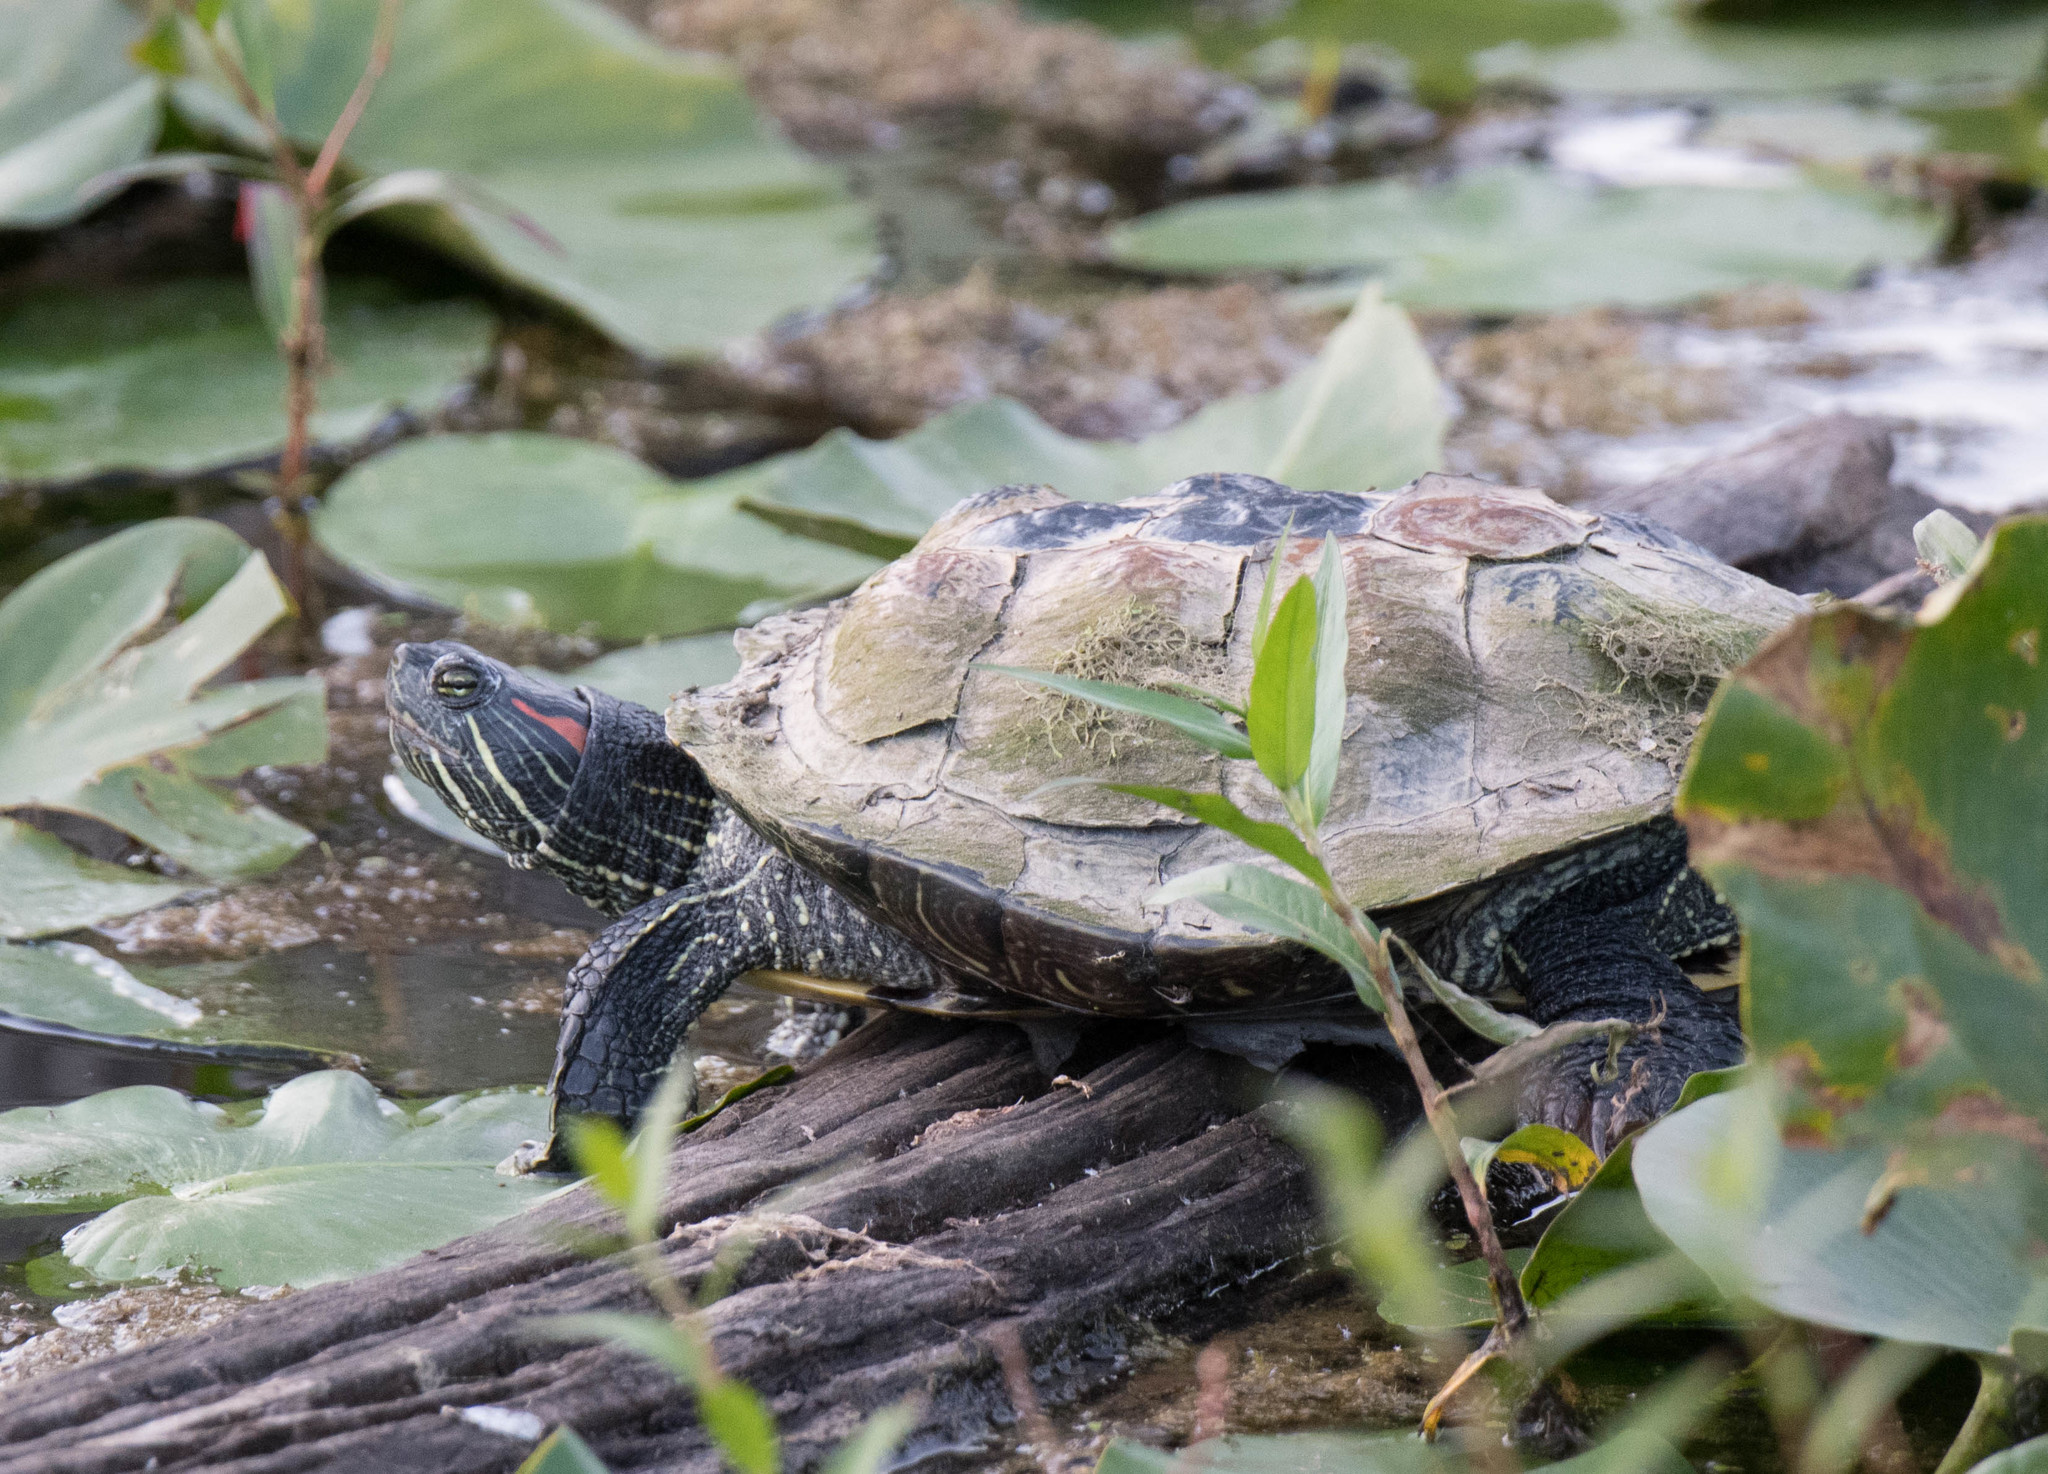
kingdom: Animalia
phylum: Chordata
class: Testudines
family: Emydidae
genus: Trachemys
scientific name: Trachemys scripta
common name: Slider
